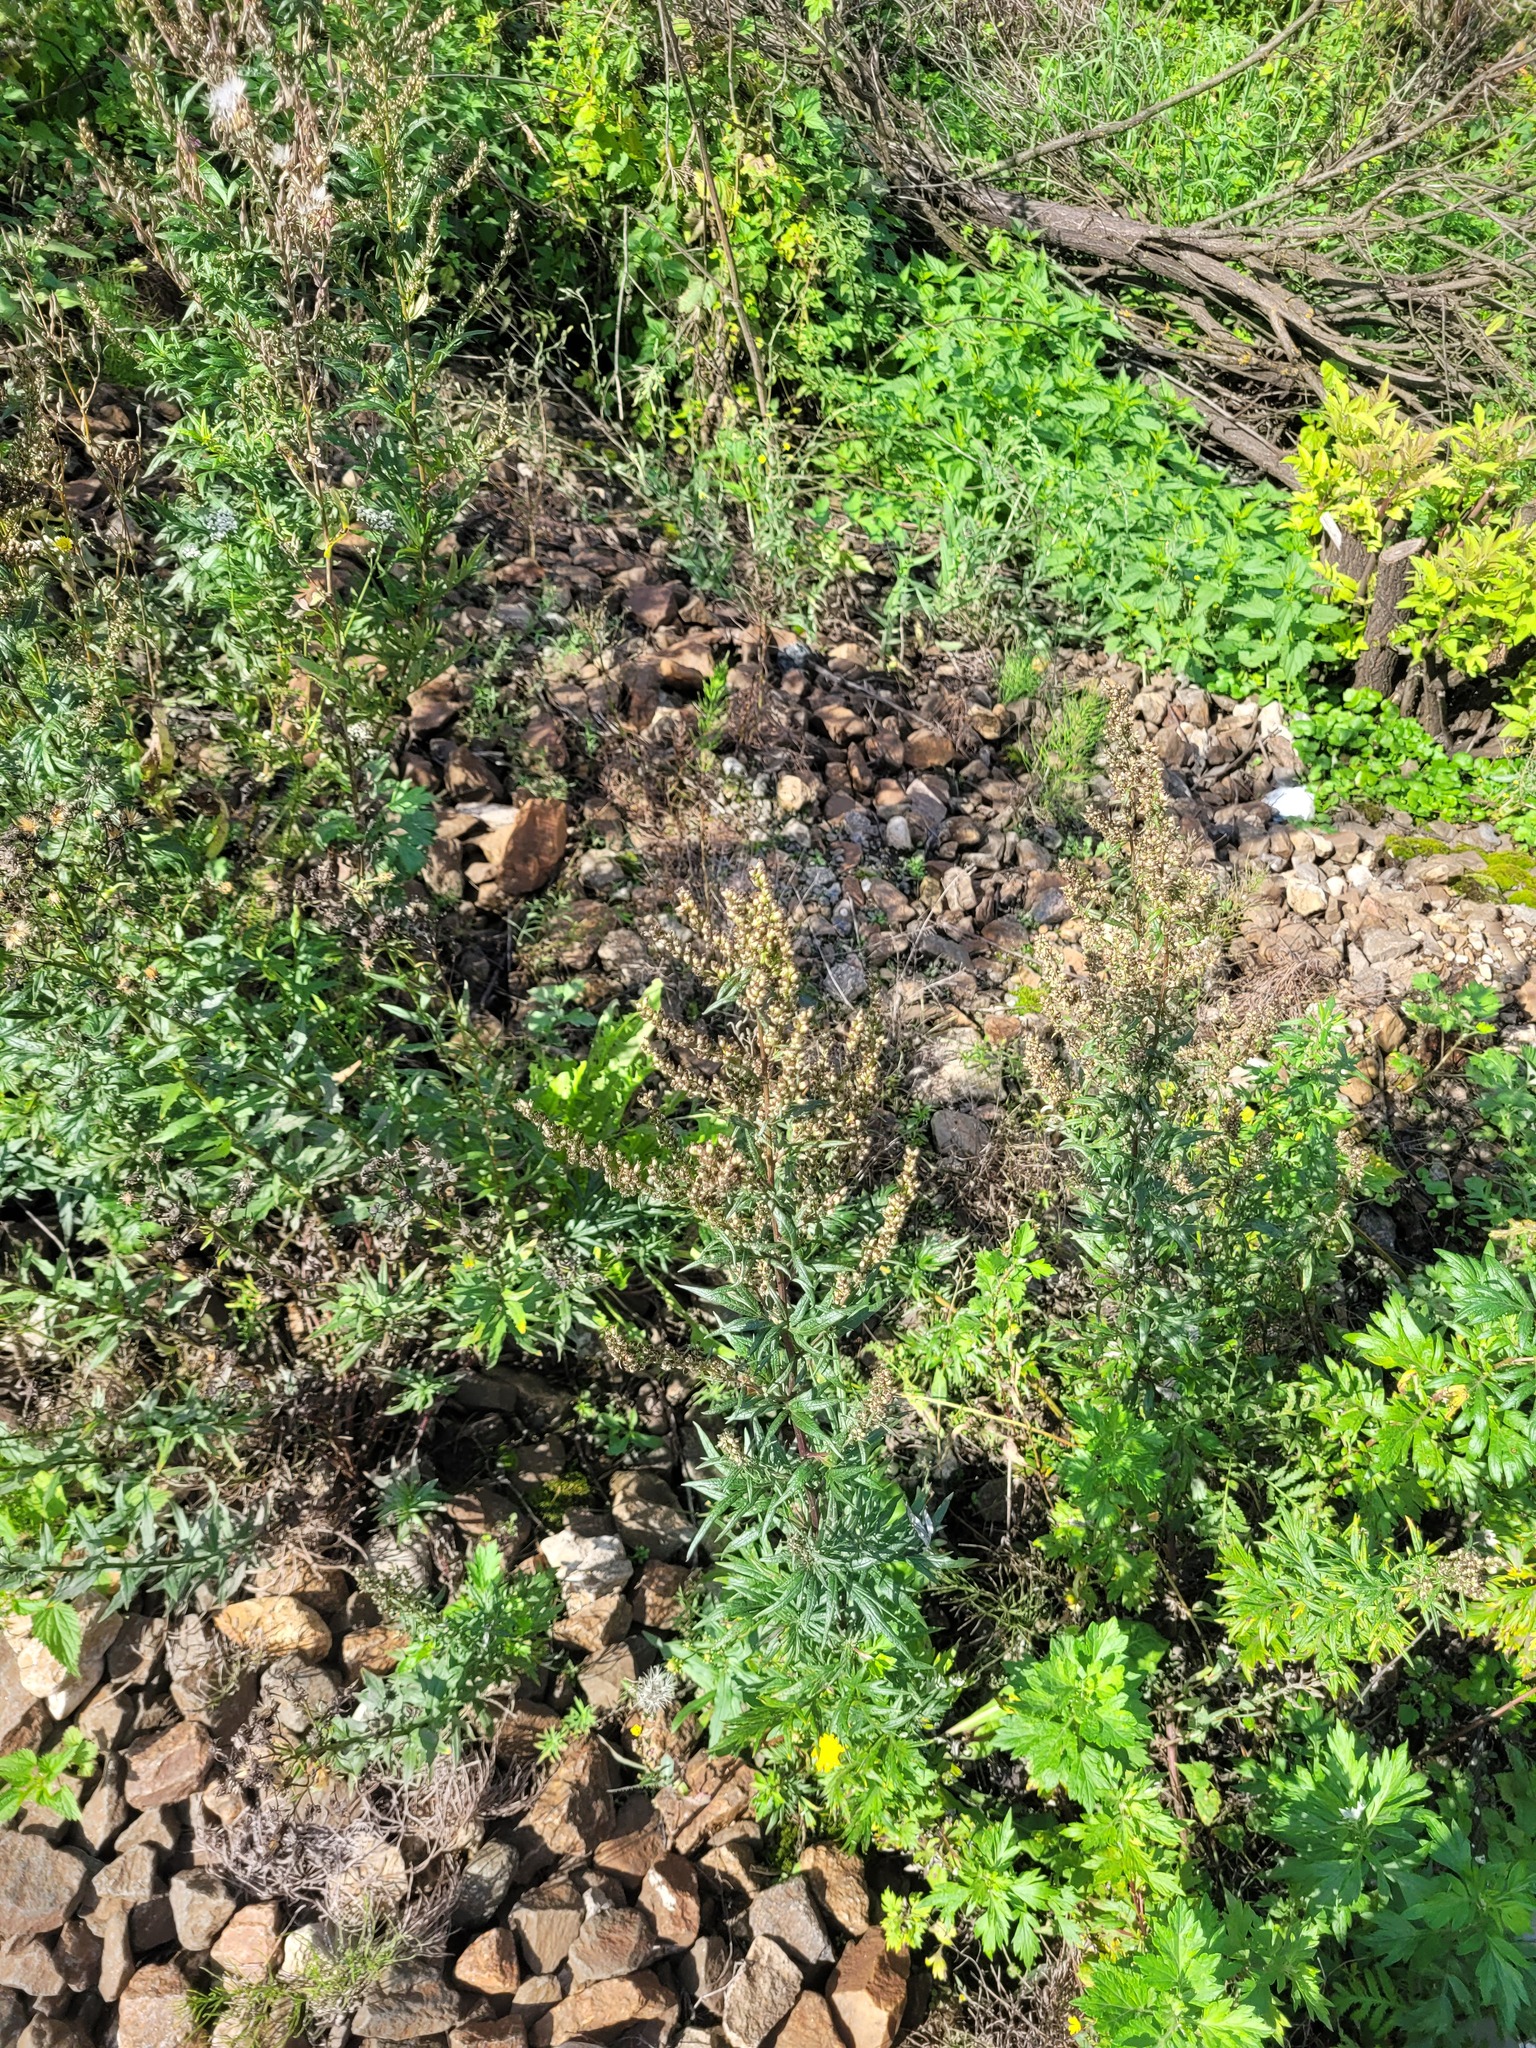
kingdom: Plantae
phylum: Tracheophyta
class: Magnoliopsida
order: Asterales
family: Asteraceae
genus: Artemisia
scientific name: Artemisia vulgaris
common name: Mugwort
